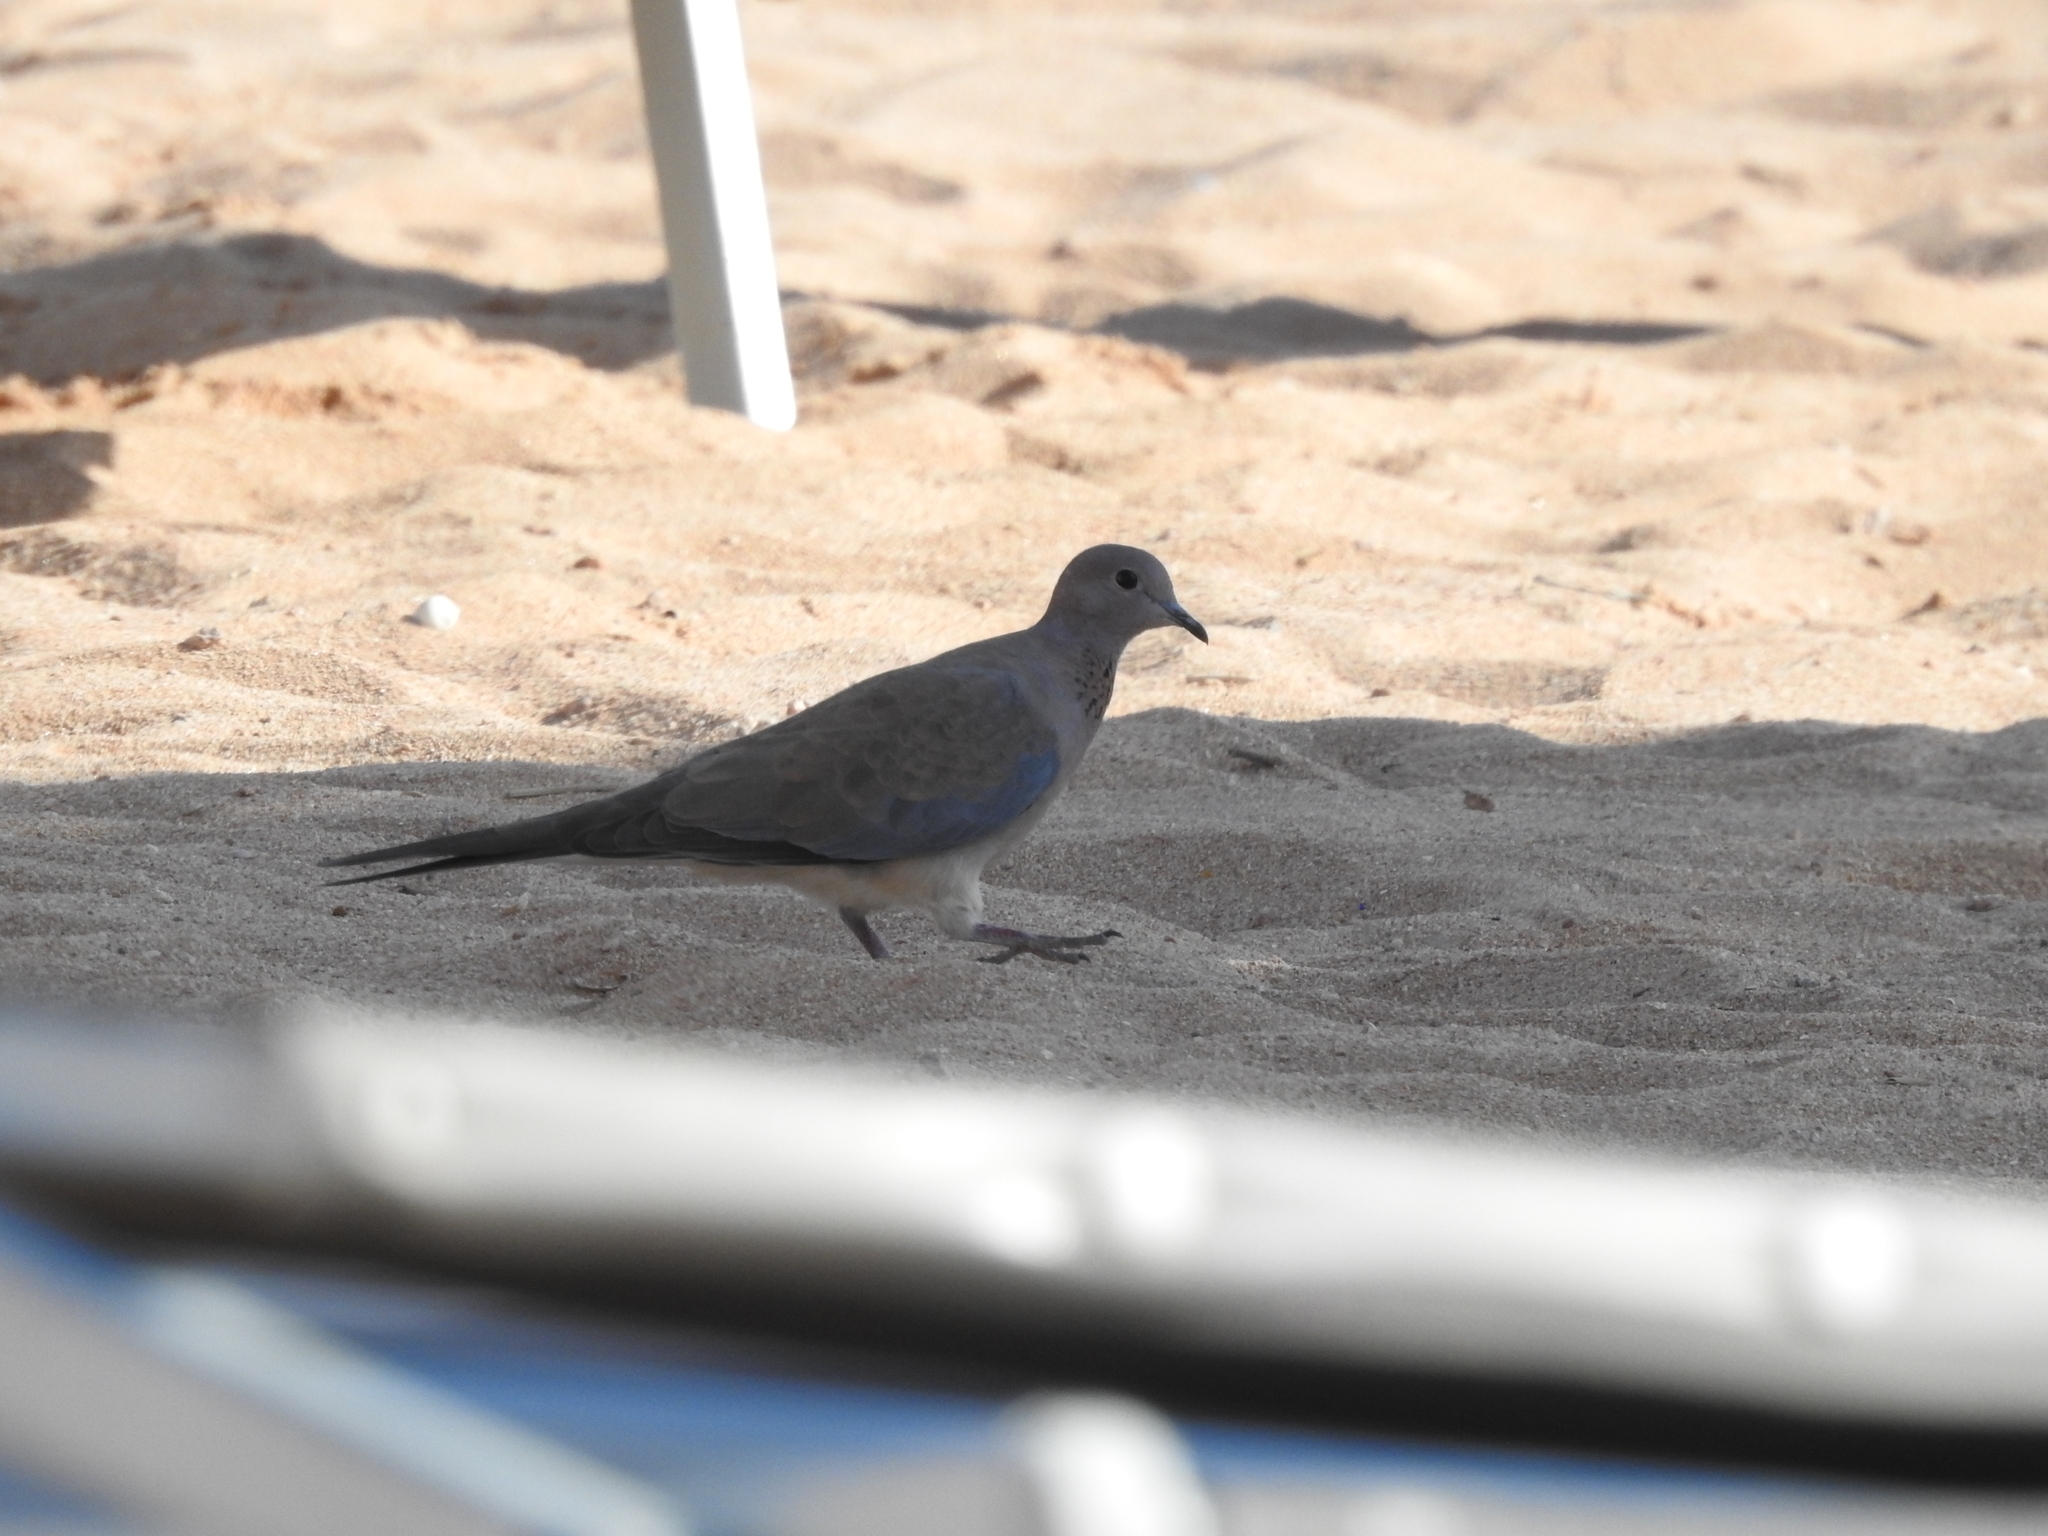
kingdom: Animalia
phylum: Chordata
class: Aves
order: Columbiformes
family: Columbidae
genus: Spilopelia
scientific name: Spilopelia senegalensis
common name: Laughing dove
